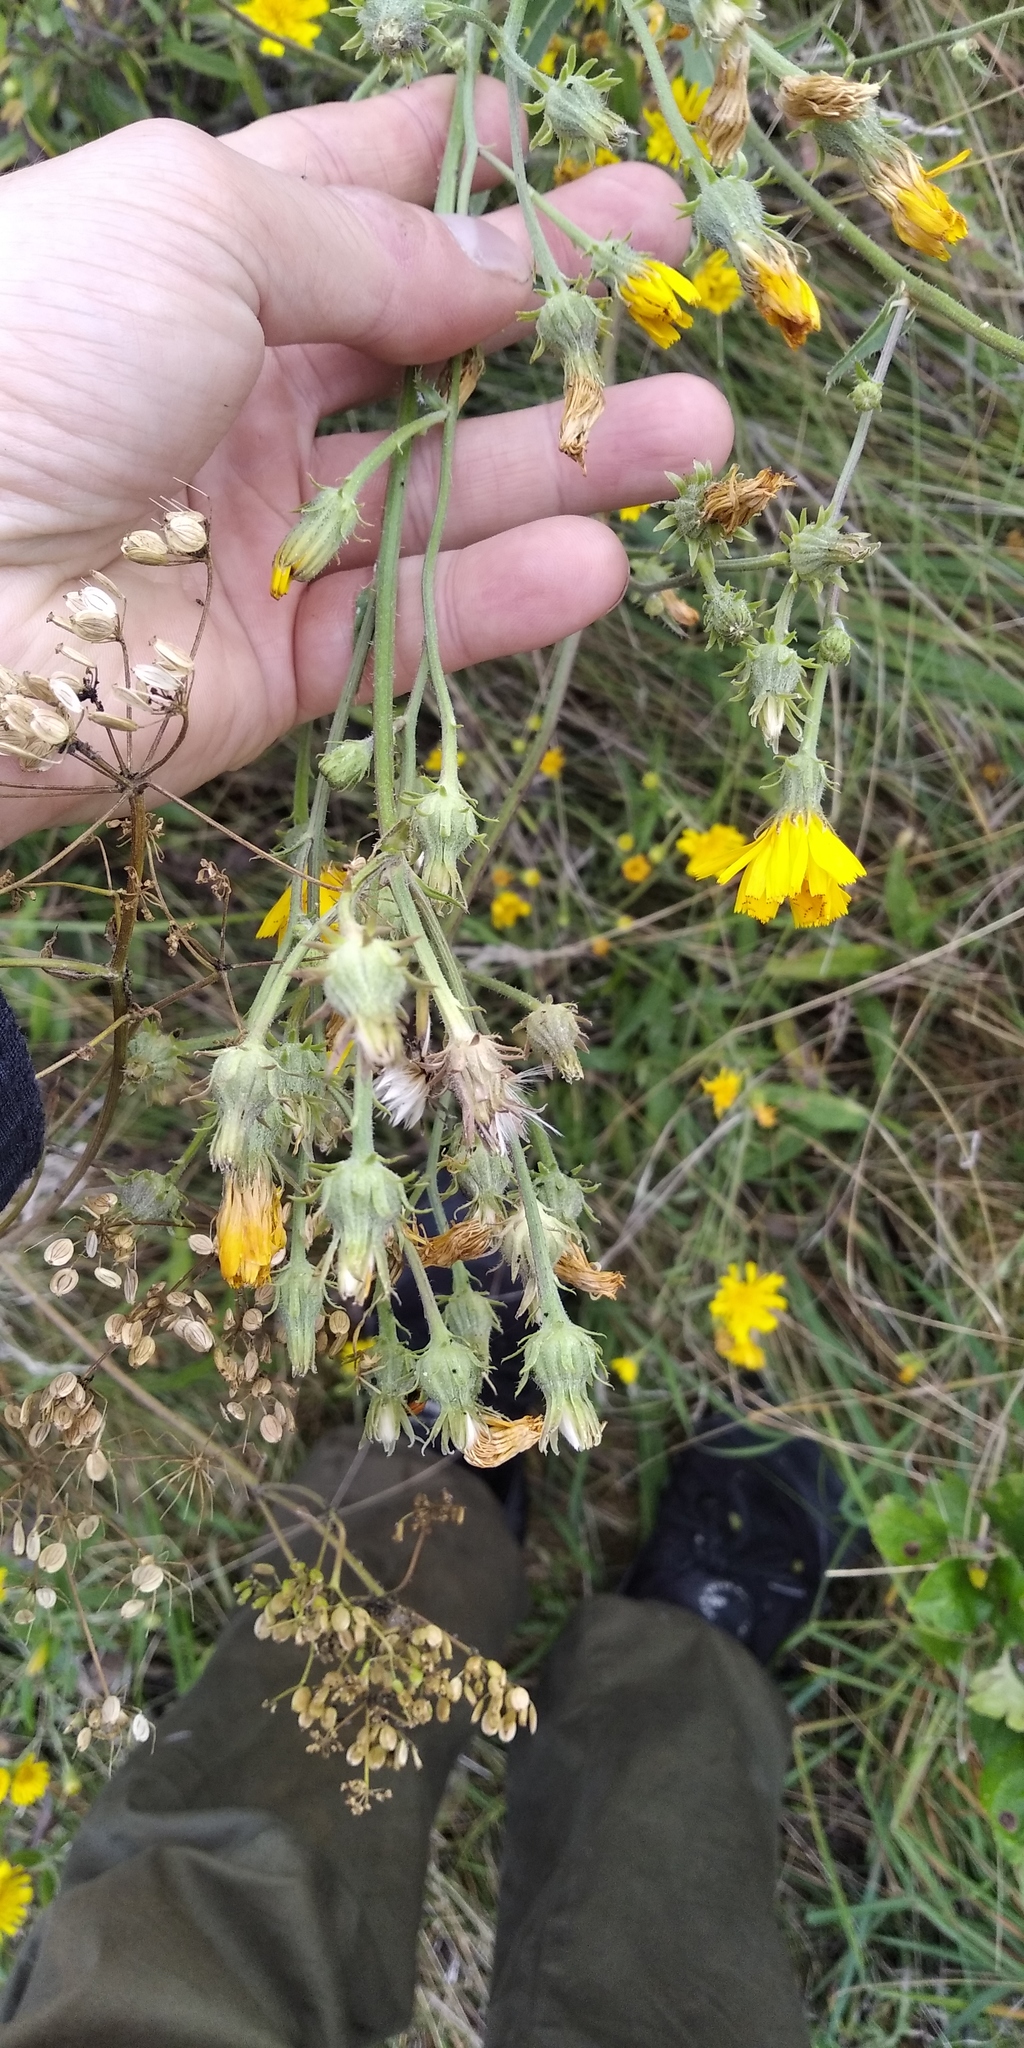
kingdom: Plantae
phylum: Tracheophyta
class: Magnoliopsida
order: Asterales
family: Asteraceae
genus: Picris
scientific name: Picris hieracioides
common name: Hawkweed oxtongue
